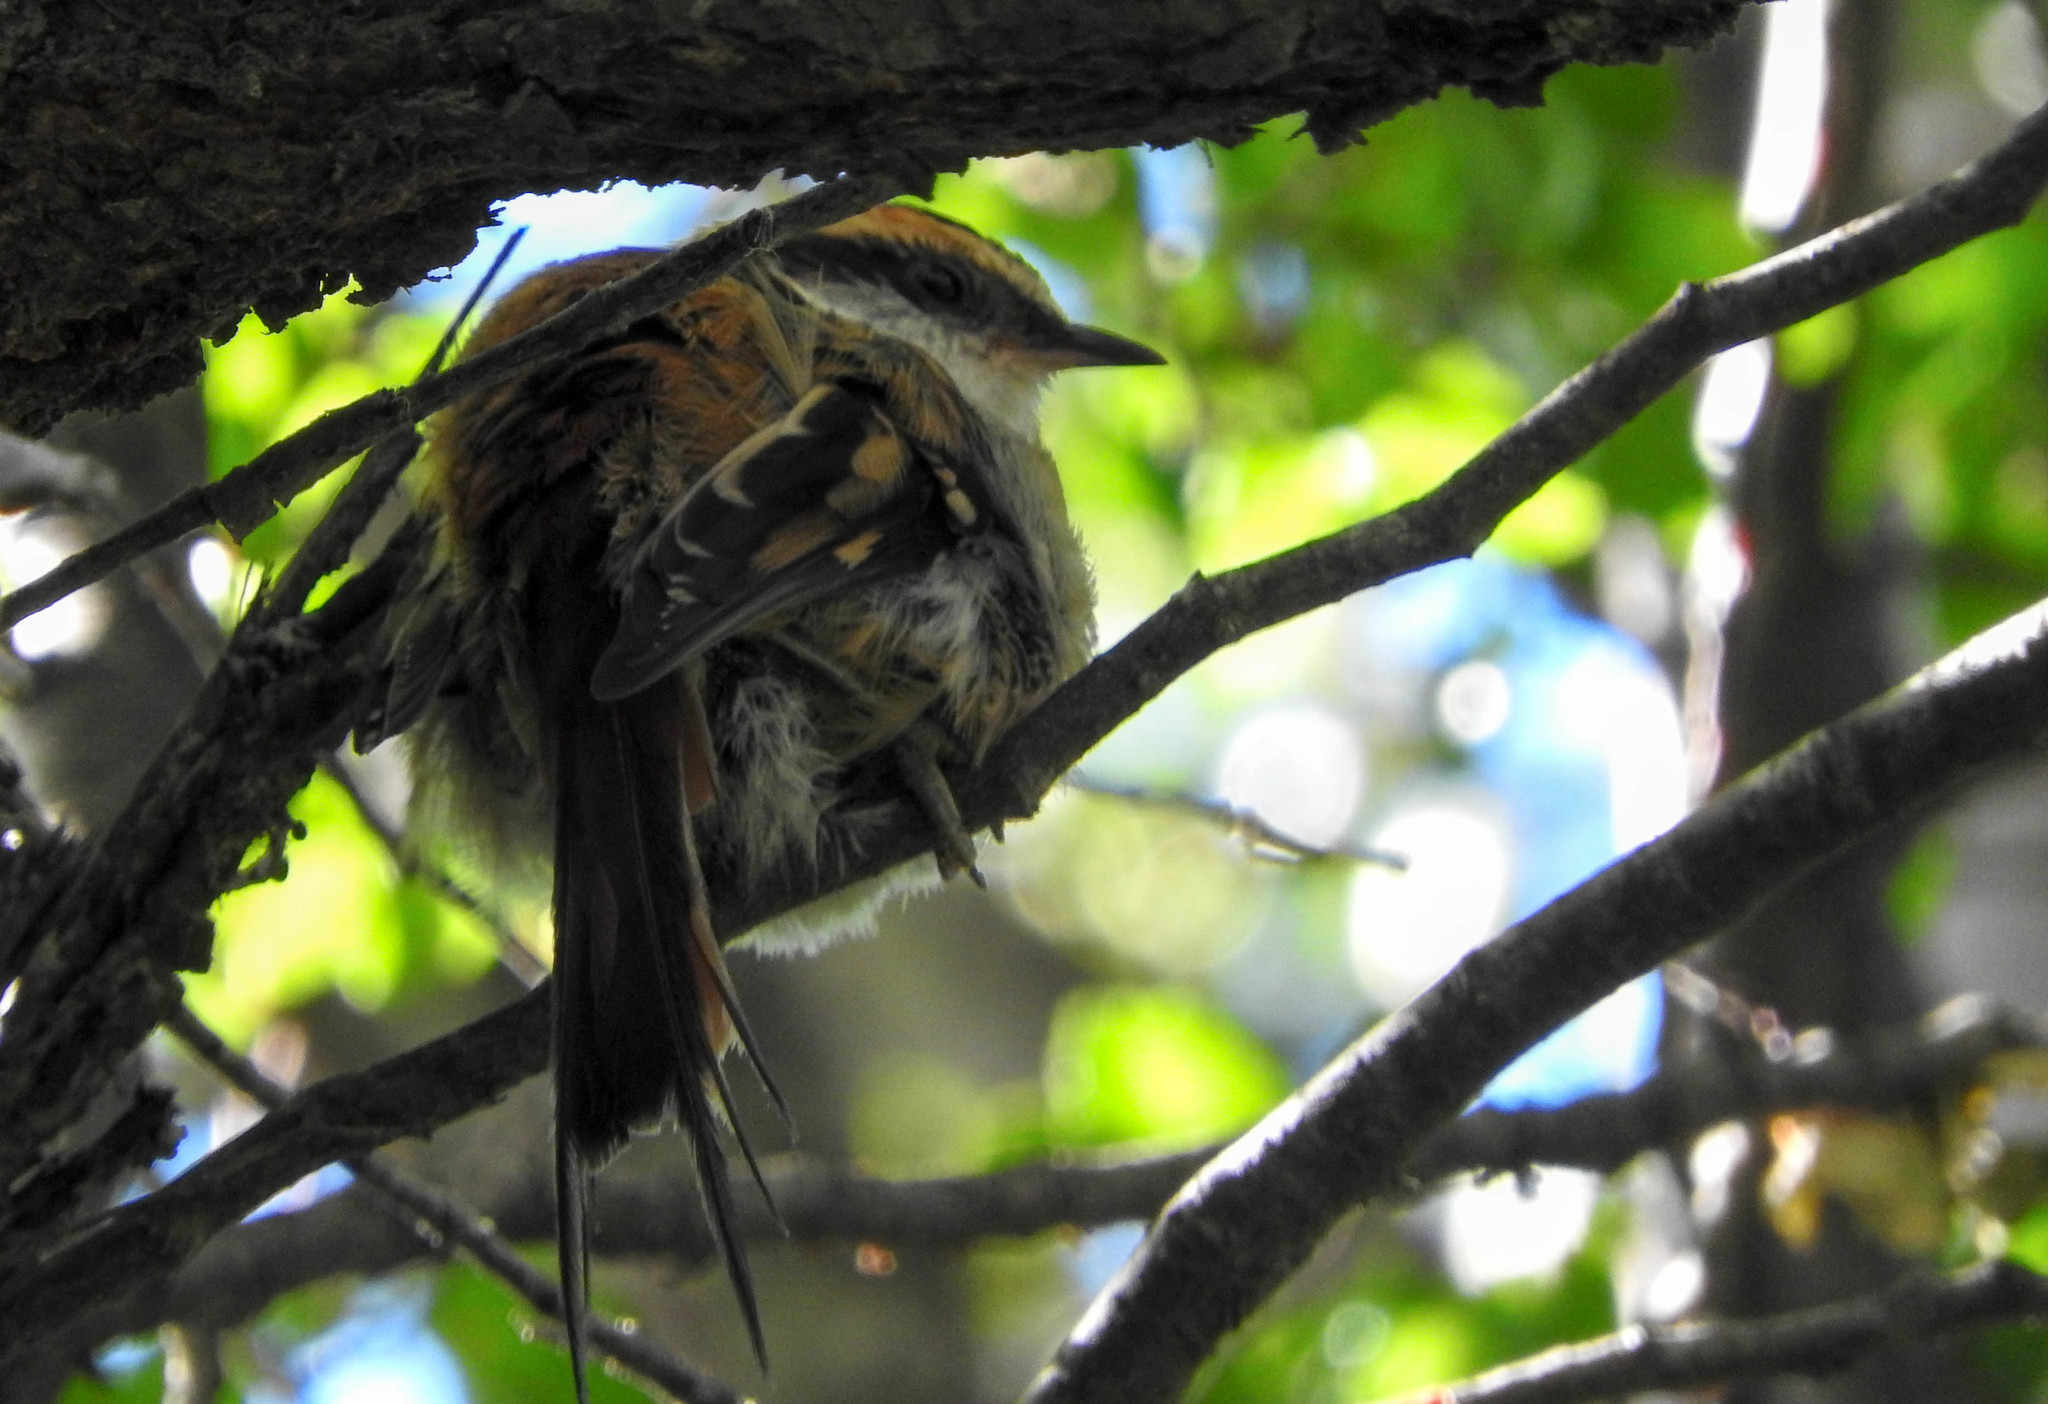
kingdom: Animalia
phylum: Chordata
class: Aves
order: Passeriformes
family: Furnariidae
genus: Aphrastura
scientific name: Aphrastura spinicauda
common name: Thorn-tailed rayadito
